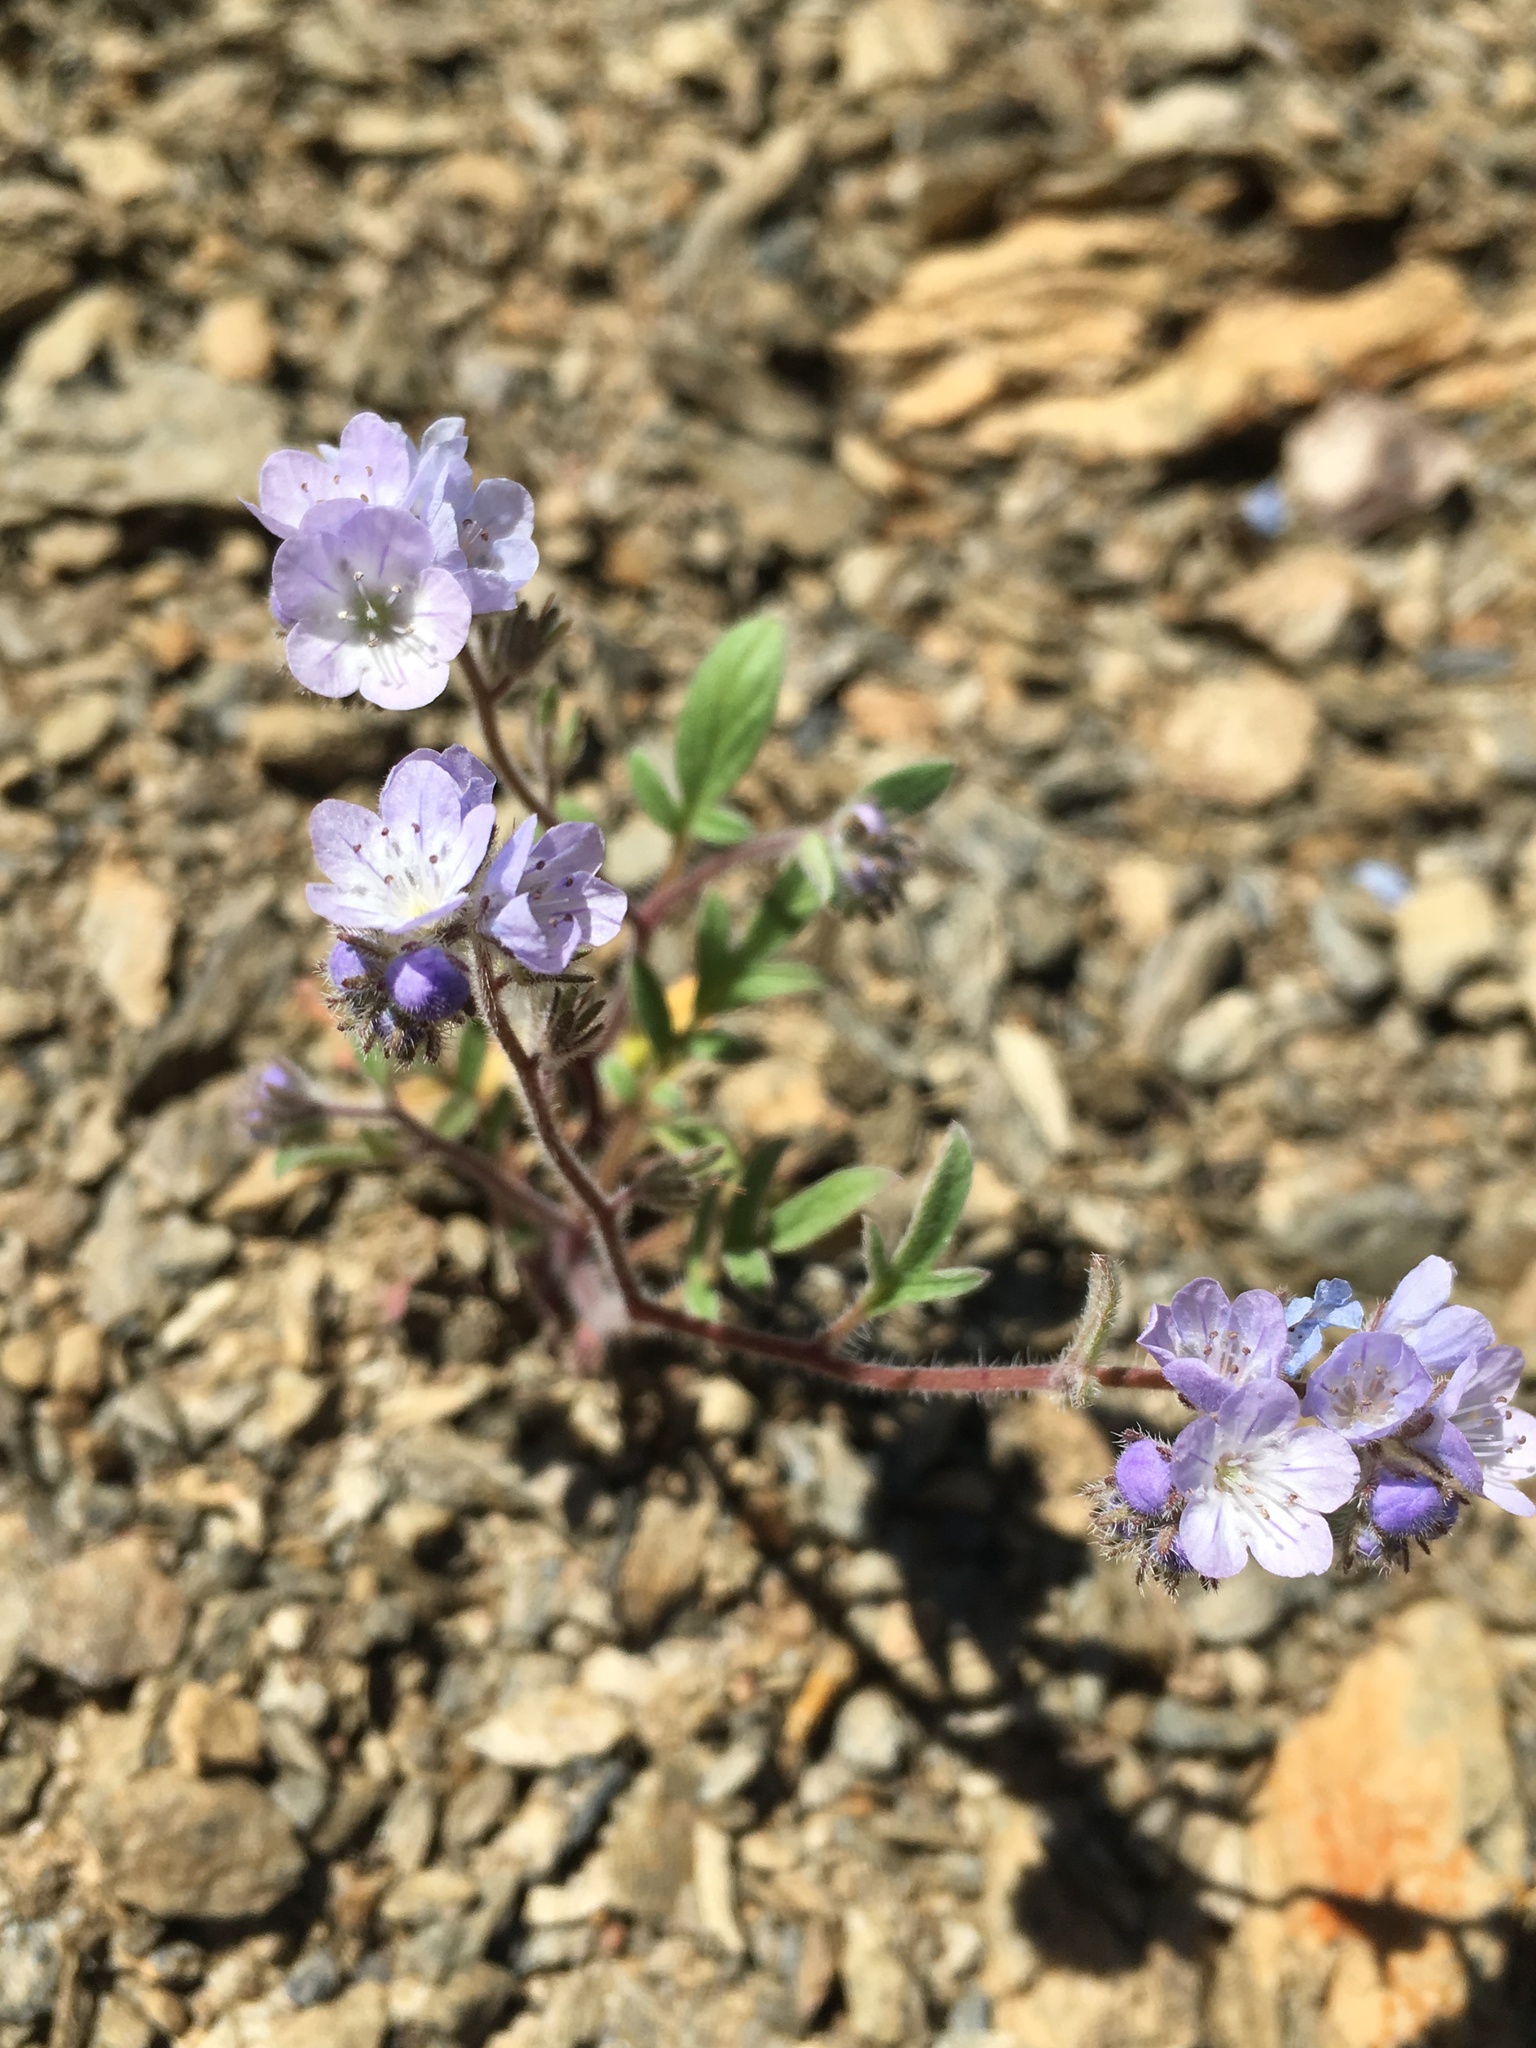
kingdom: Plantae
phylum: Tracheophyta
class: Magnoliopsida
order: Boraginales
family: Hydrophyllaceae
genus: Phacelia
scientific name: Phacelia breweri
